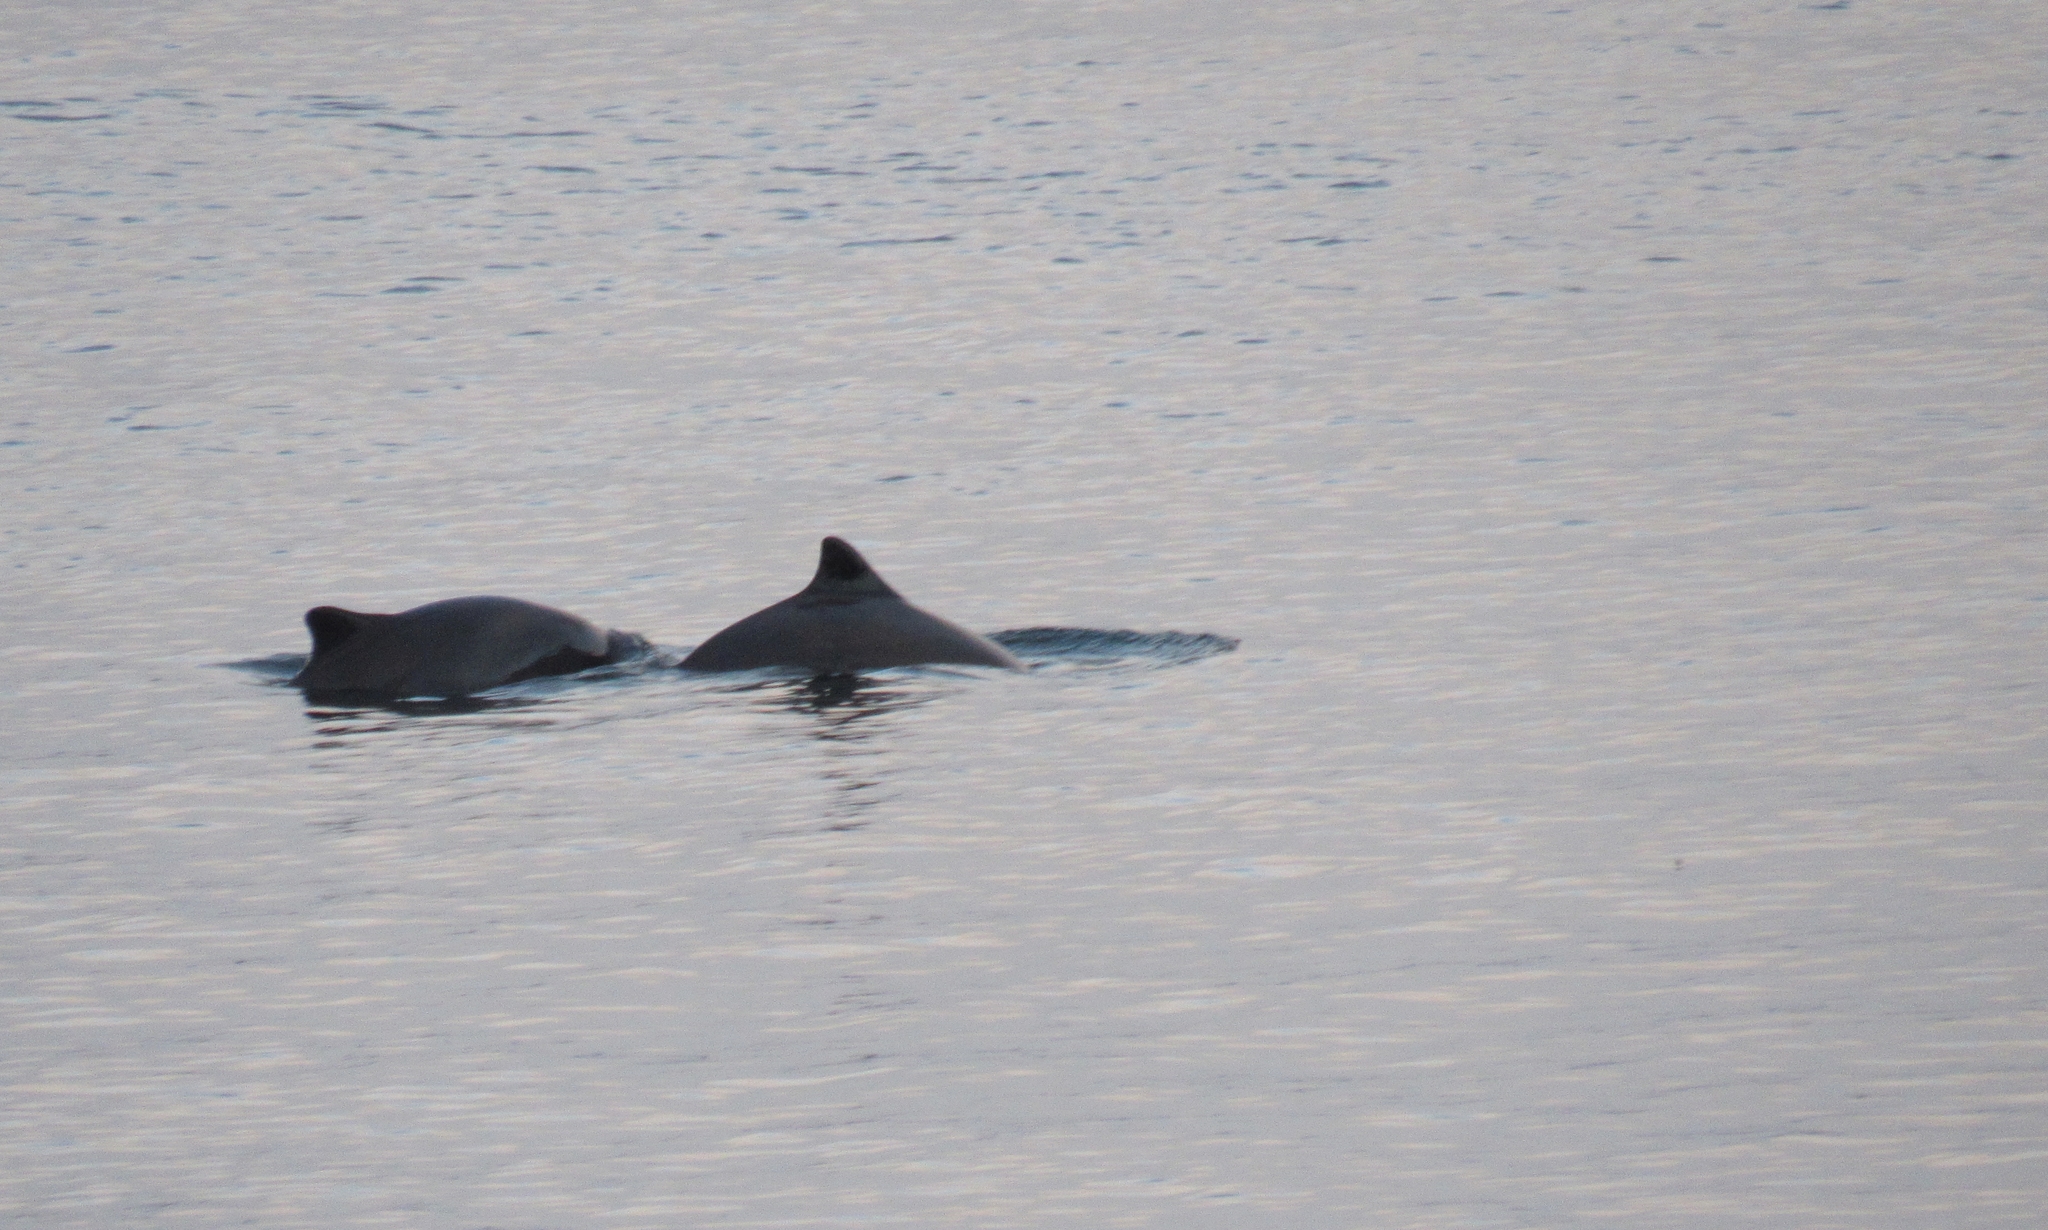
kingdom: Animalia
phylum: Chordata
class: Mammalia
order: Cetacea
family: Phocoenidae
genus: Phocoena
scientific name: Phocoena phocoena
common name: Harbor porpoise
